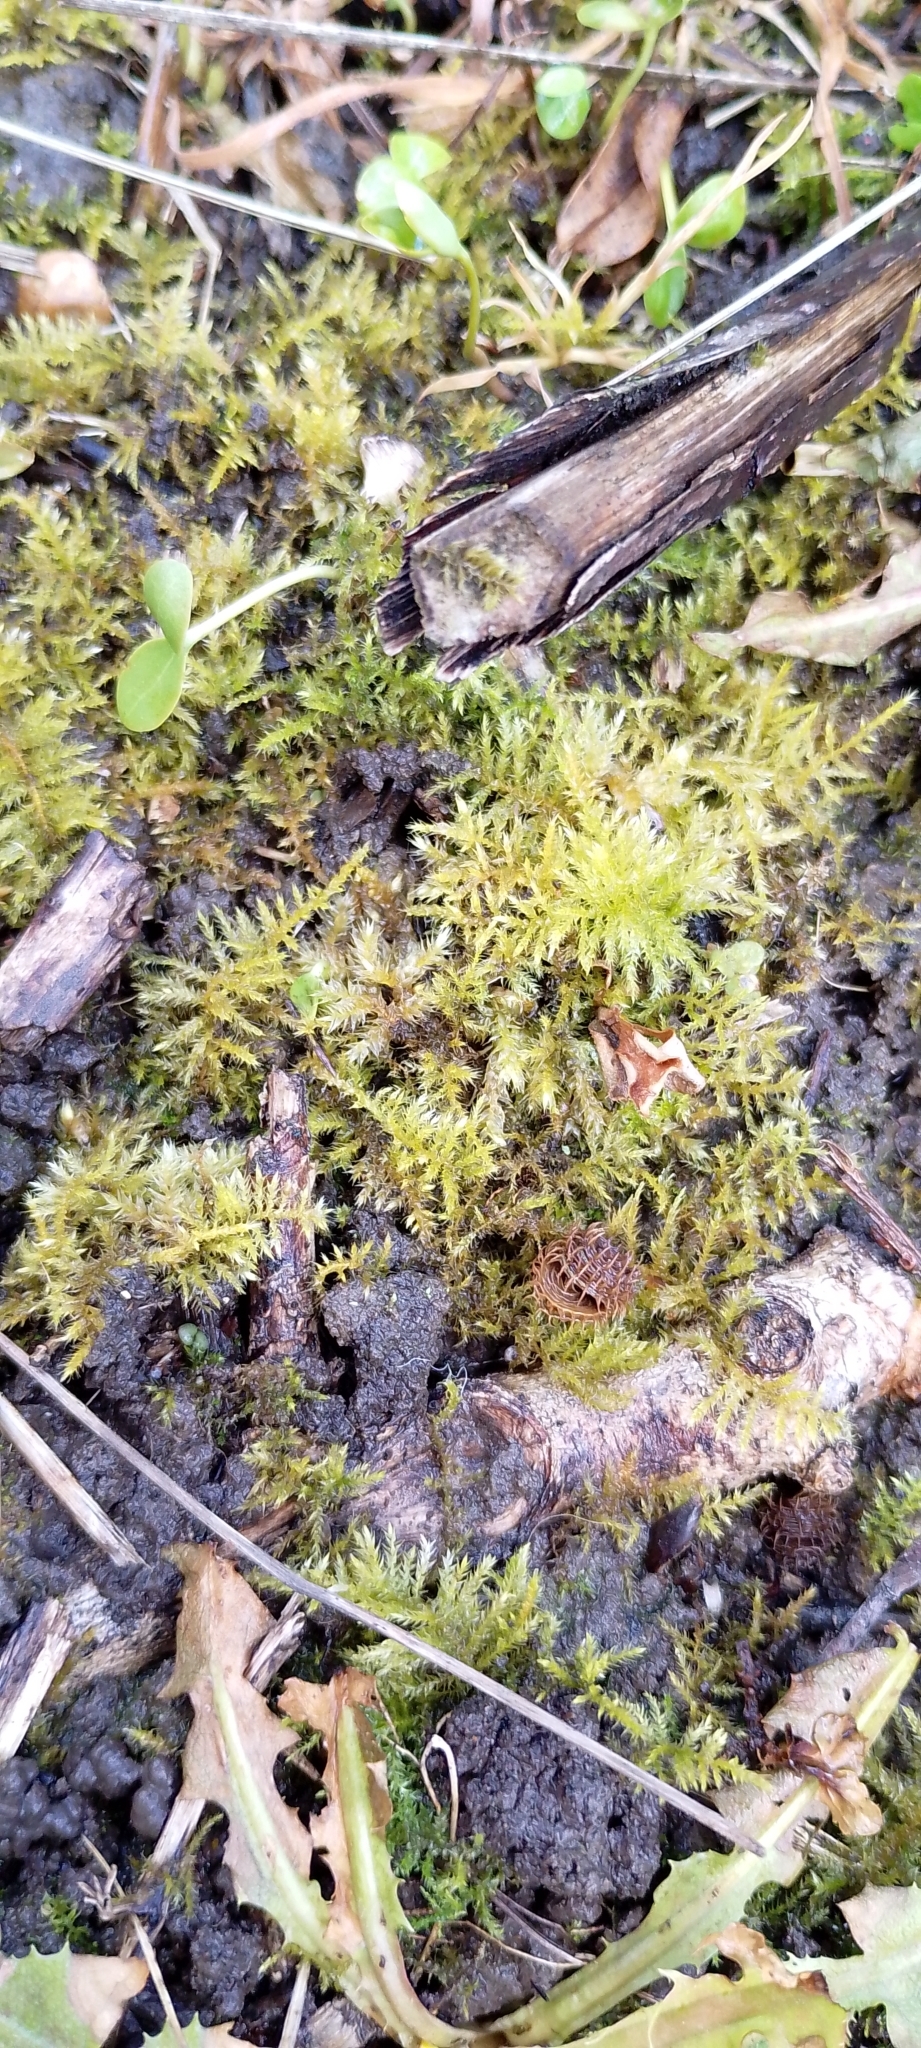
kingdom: Plantae
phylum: Bryophyta
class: Bryopsida
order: Hypnales
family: Brachytheciaceae
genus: Kindbergia
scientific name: Kindbergia praelonga
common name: Slender beaked moss
